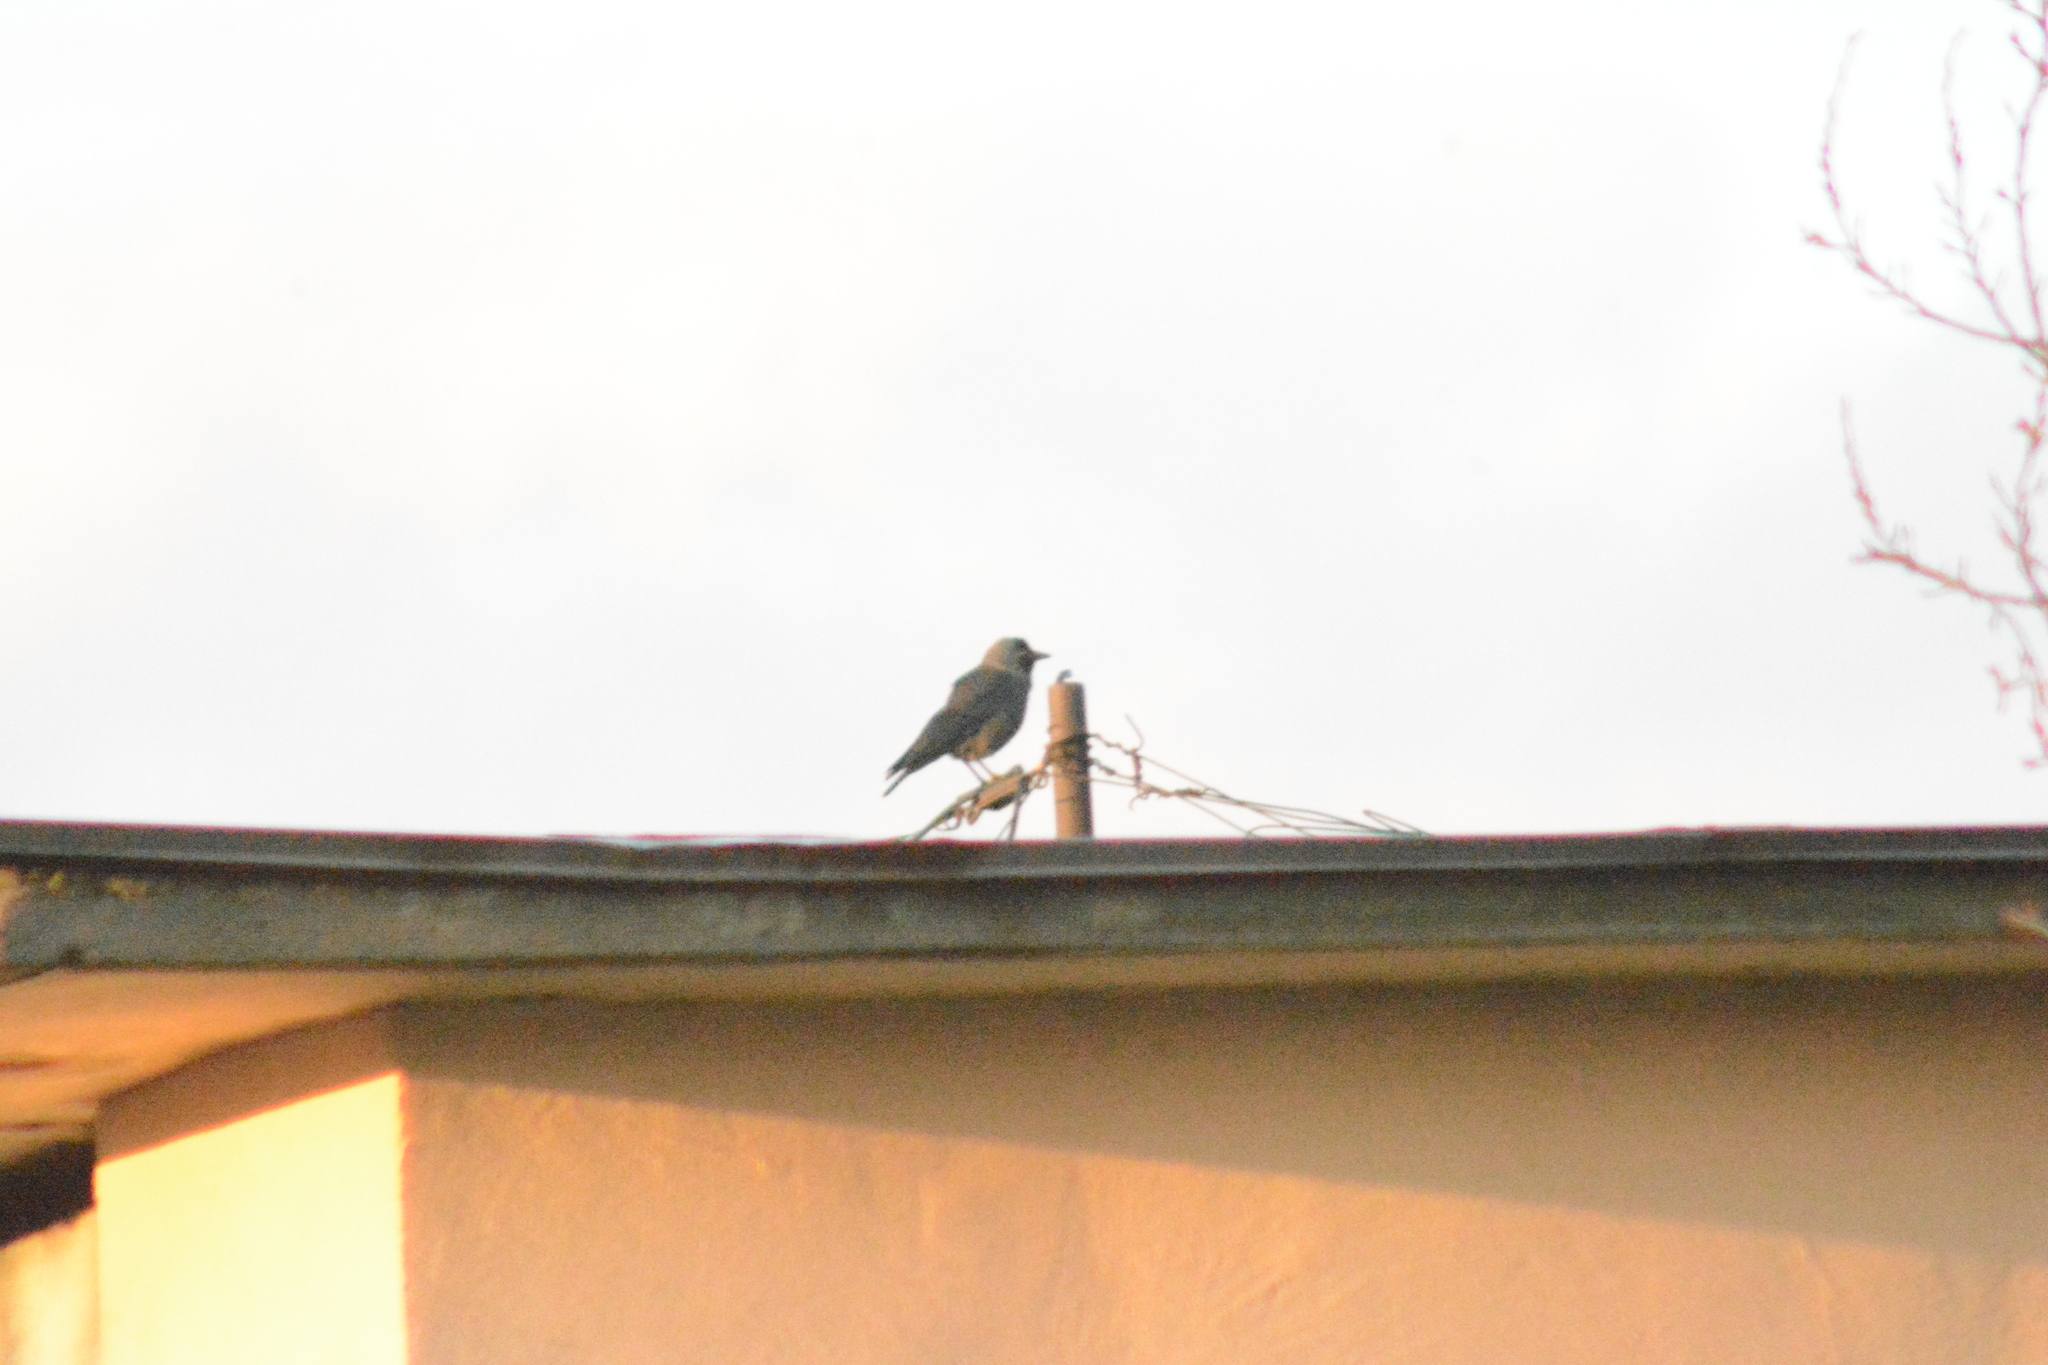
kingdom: Animalia
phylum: Chordata
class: Aves
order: Passeriformes
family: Corvidae
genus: Coloeus
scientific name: Coloeus monedula
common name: Western jackdaw
